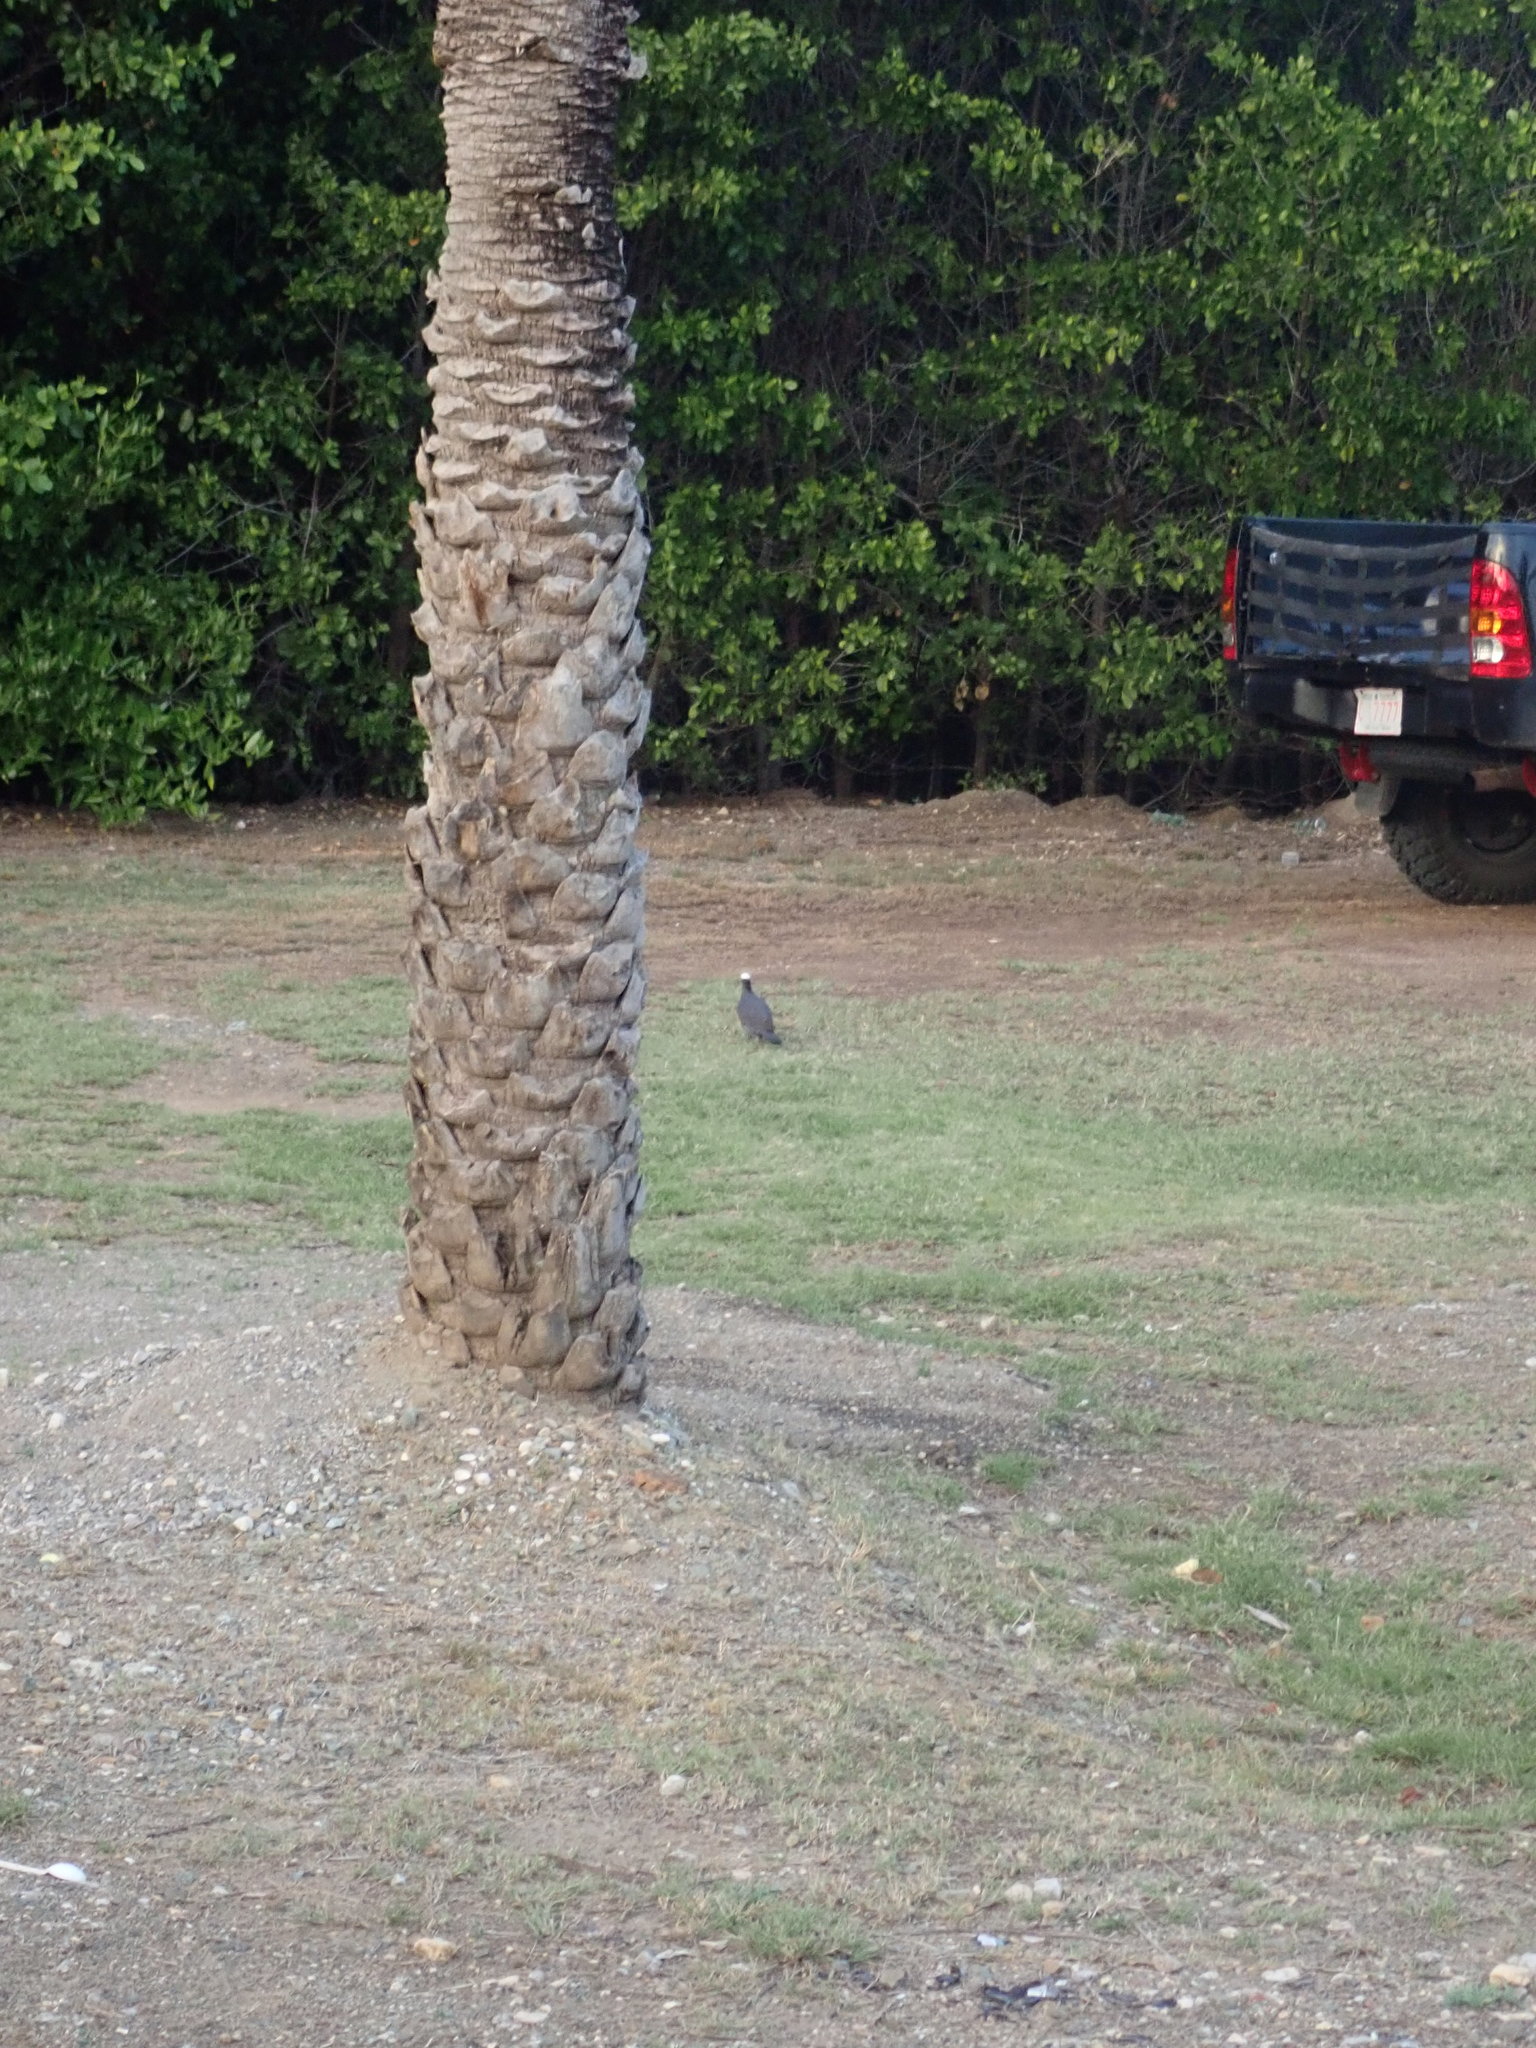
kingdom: Plantae
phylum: Tracheophyta
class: Liliopsida
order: Arecales
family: Arecaceae
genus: Phoenix
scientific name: Phoenix dactylifera
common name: Date palm
